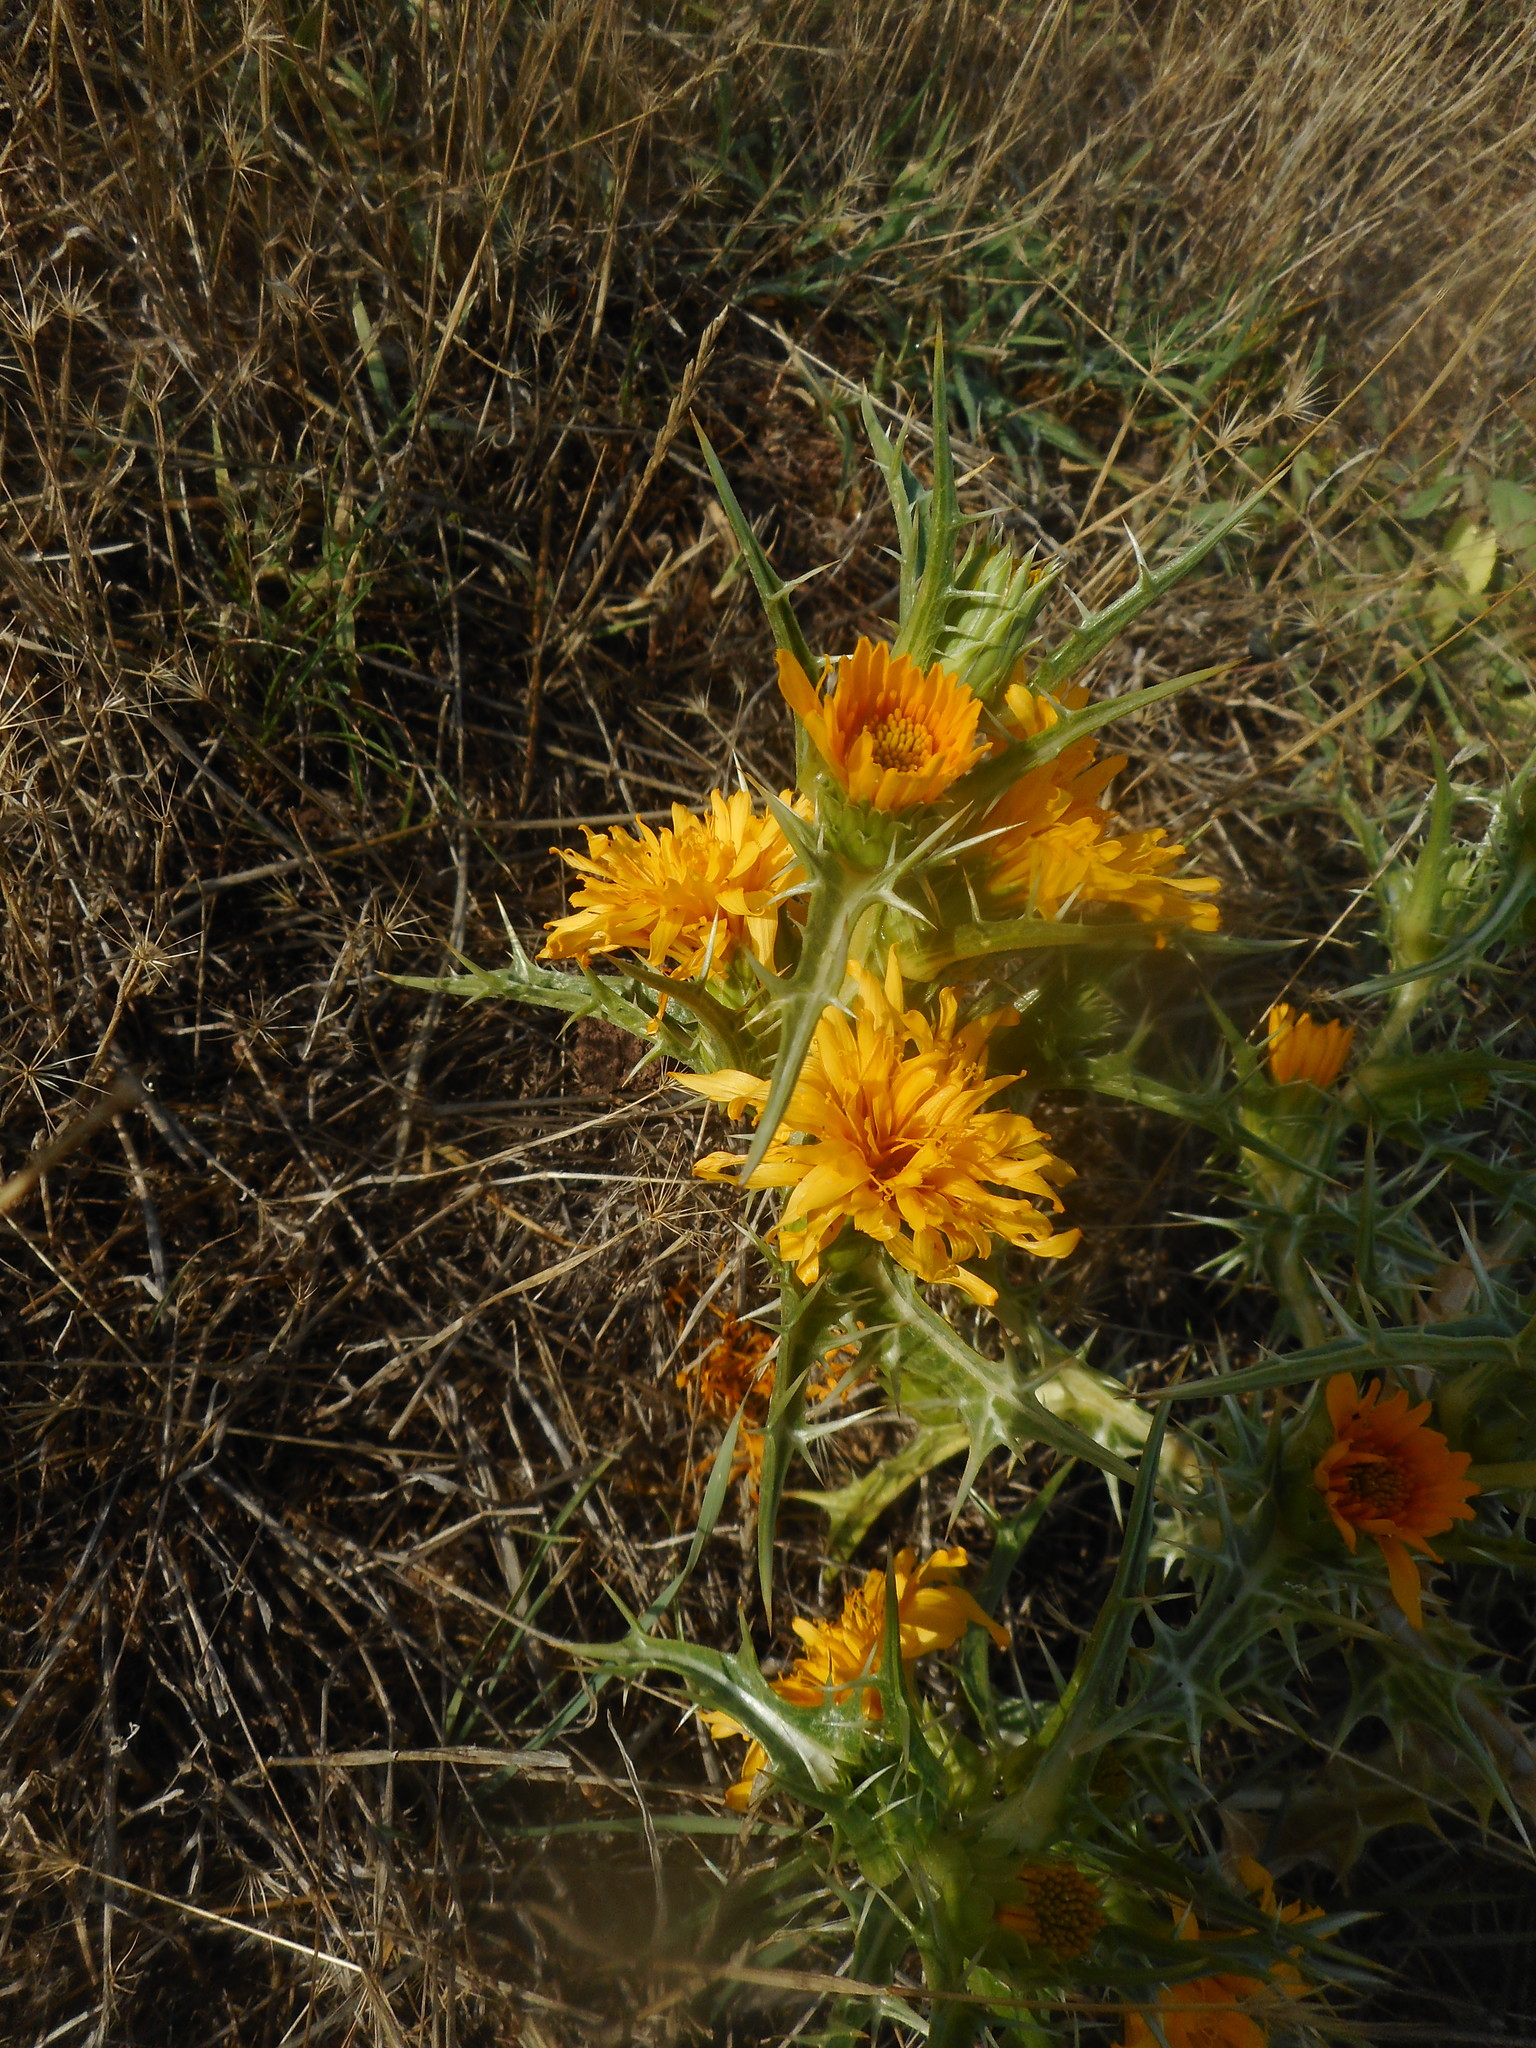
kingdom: Plantae
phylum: Tracheophyta
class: Magnoliopsida
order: Asterales
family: Asteraceae
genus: Scolymus
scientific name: Scolymus hispanicus
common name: Golden thistle
